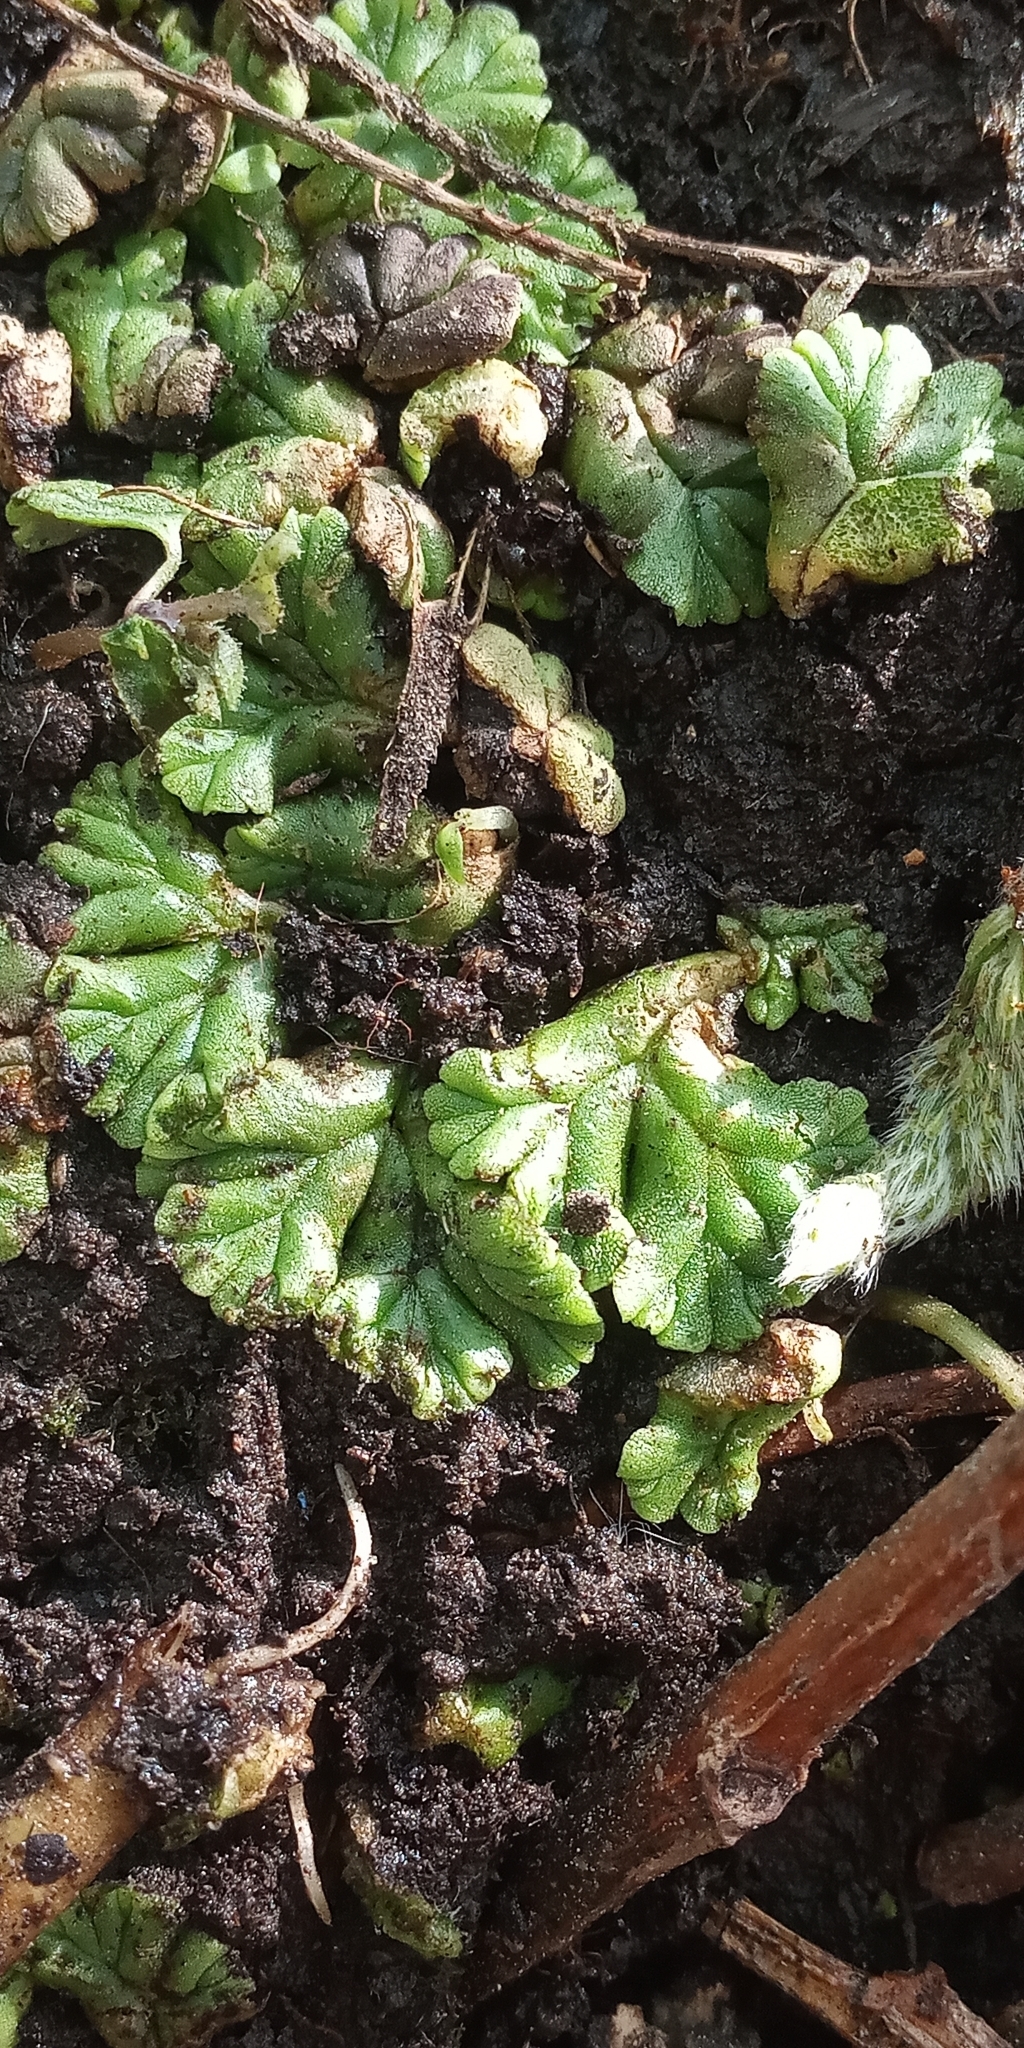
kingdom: Plantae
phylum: Marchantiophyta
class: Marchantiopsida
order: Marchantiales
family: Ricciaceae
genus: Ricciocarpos
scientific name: Ricciocarpos natans
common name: Purple-fringed liverwort
